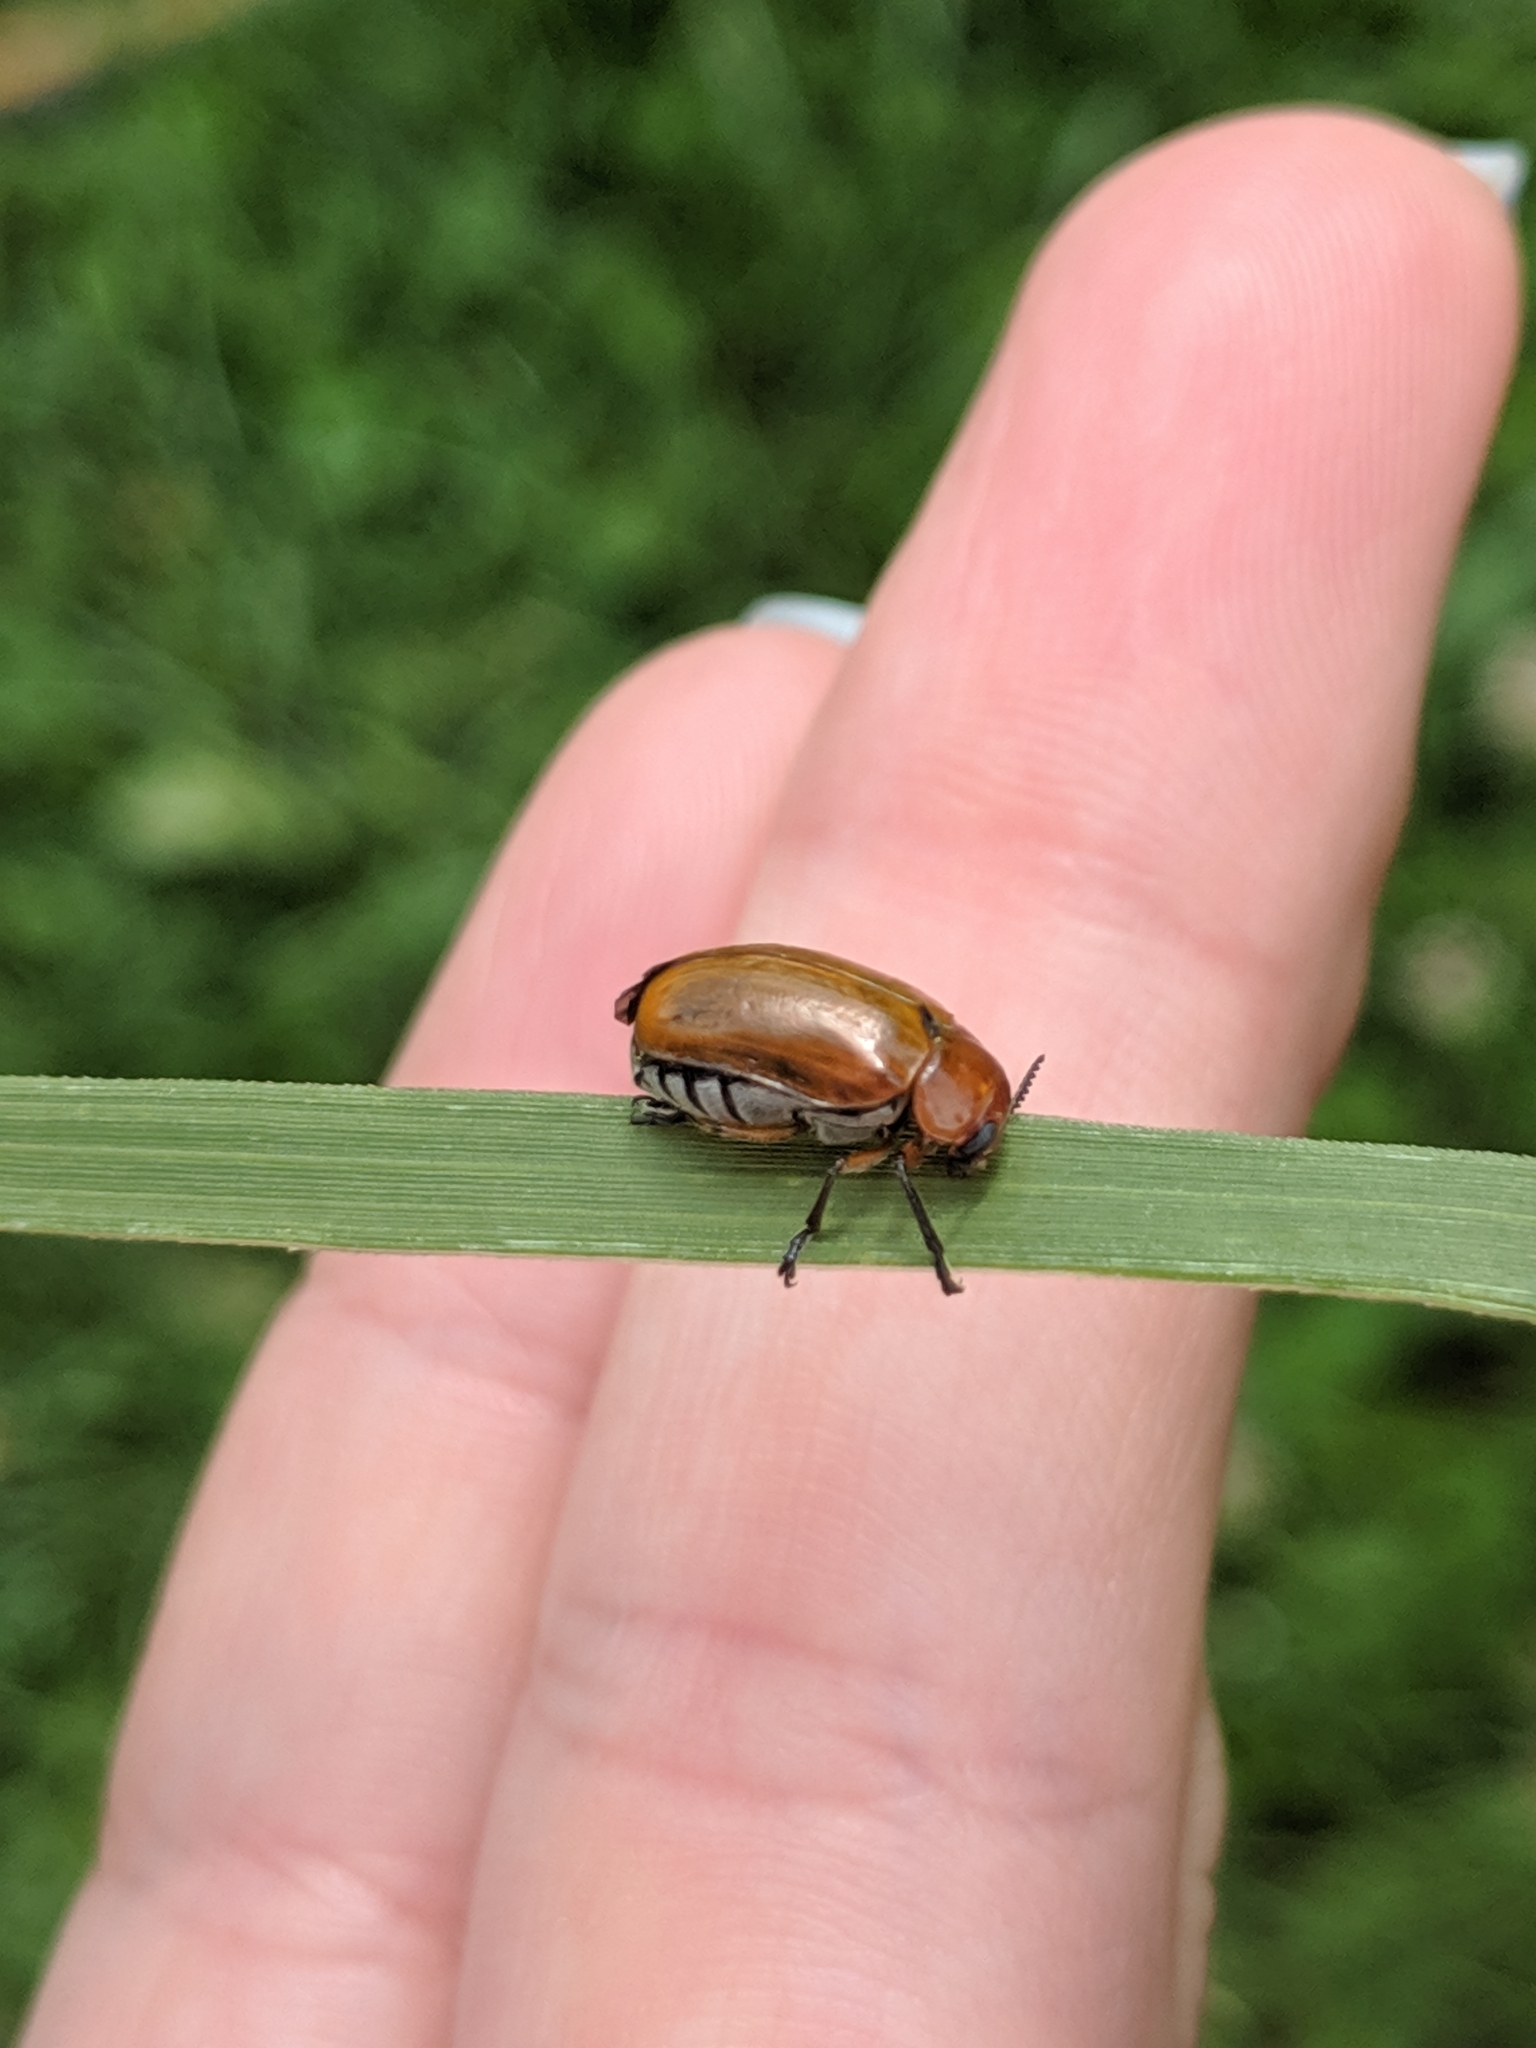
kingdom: Animalia
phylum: Arthropoda
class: Insecta
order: Coleoptera
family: Chrysomelidae
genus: Anomoea
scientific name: Anomoea laticlavia
